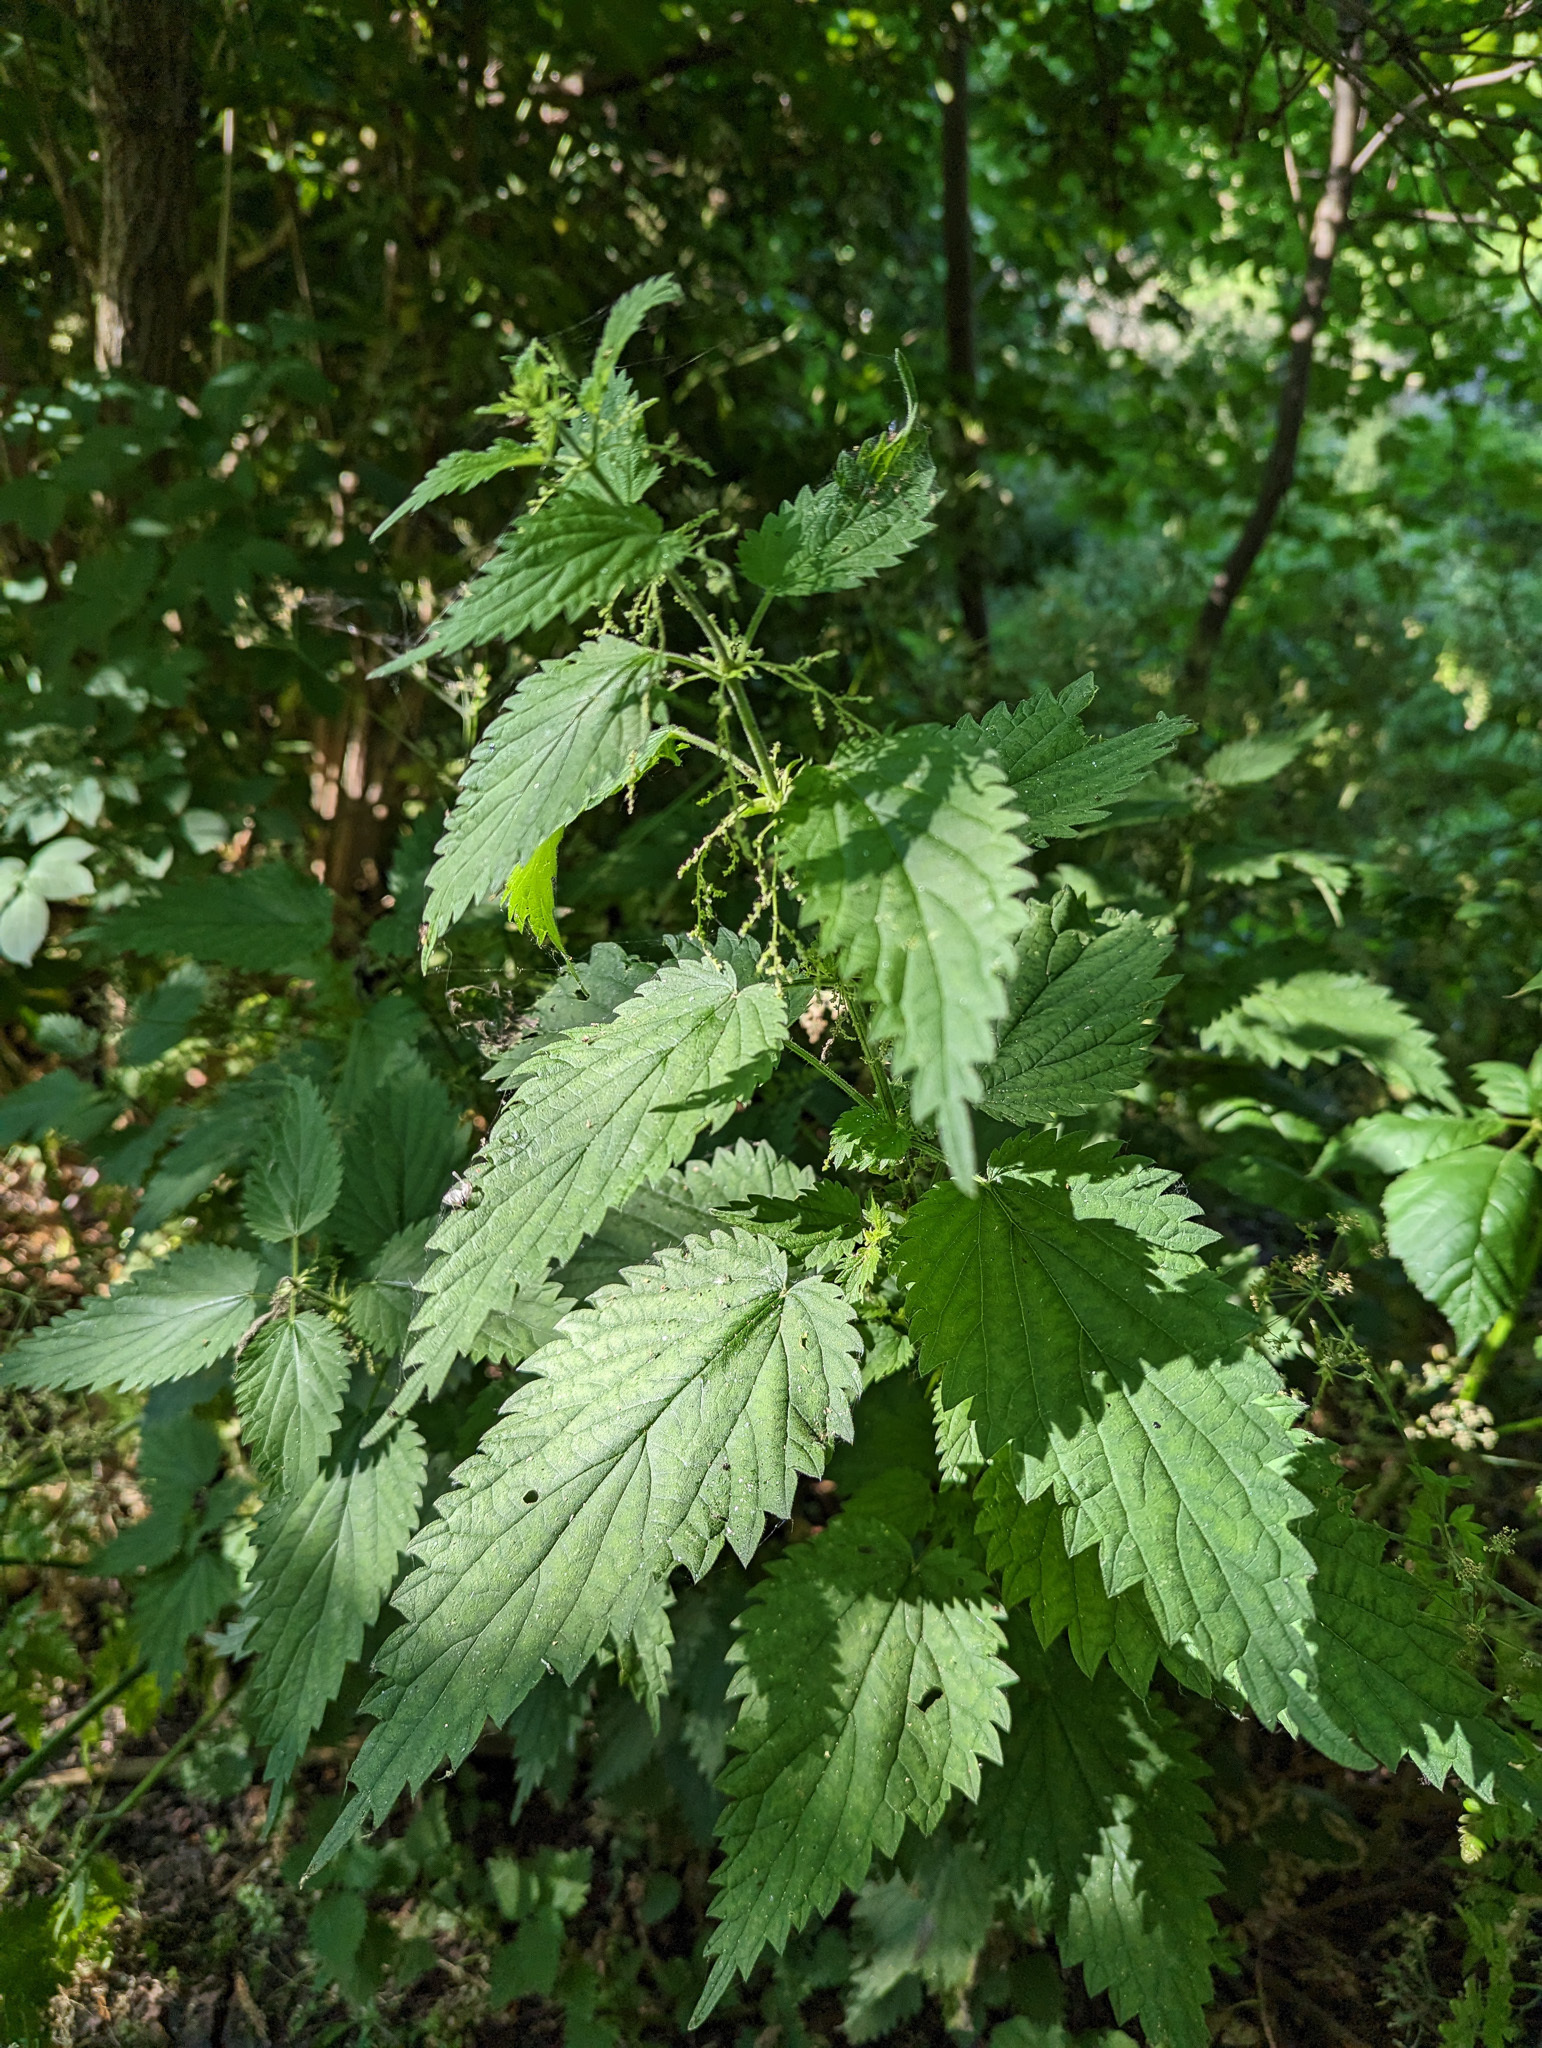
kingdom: Plantae
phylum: Tracheophyta
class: Magnoliopsida
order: Rosales
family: Urticaceae
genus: Urtica
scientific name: Urtica dioica
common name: Common nettle
